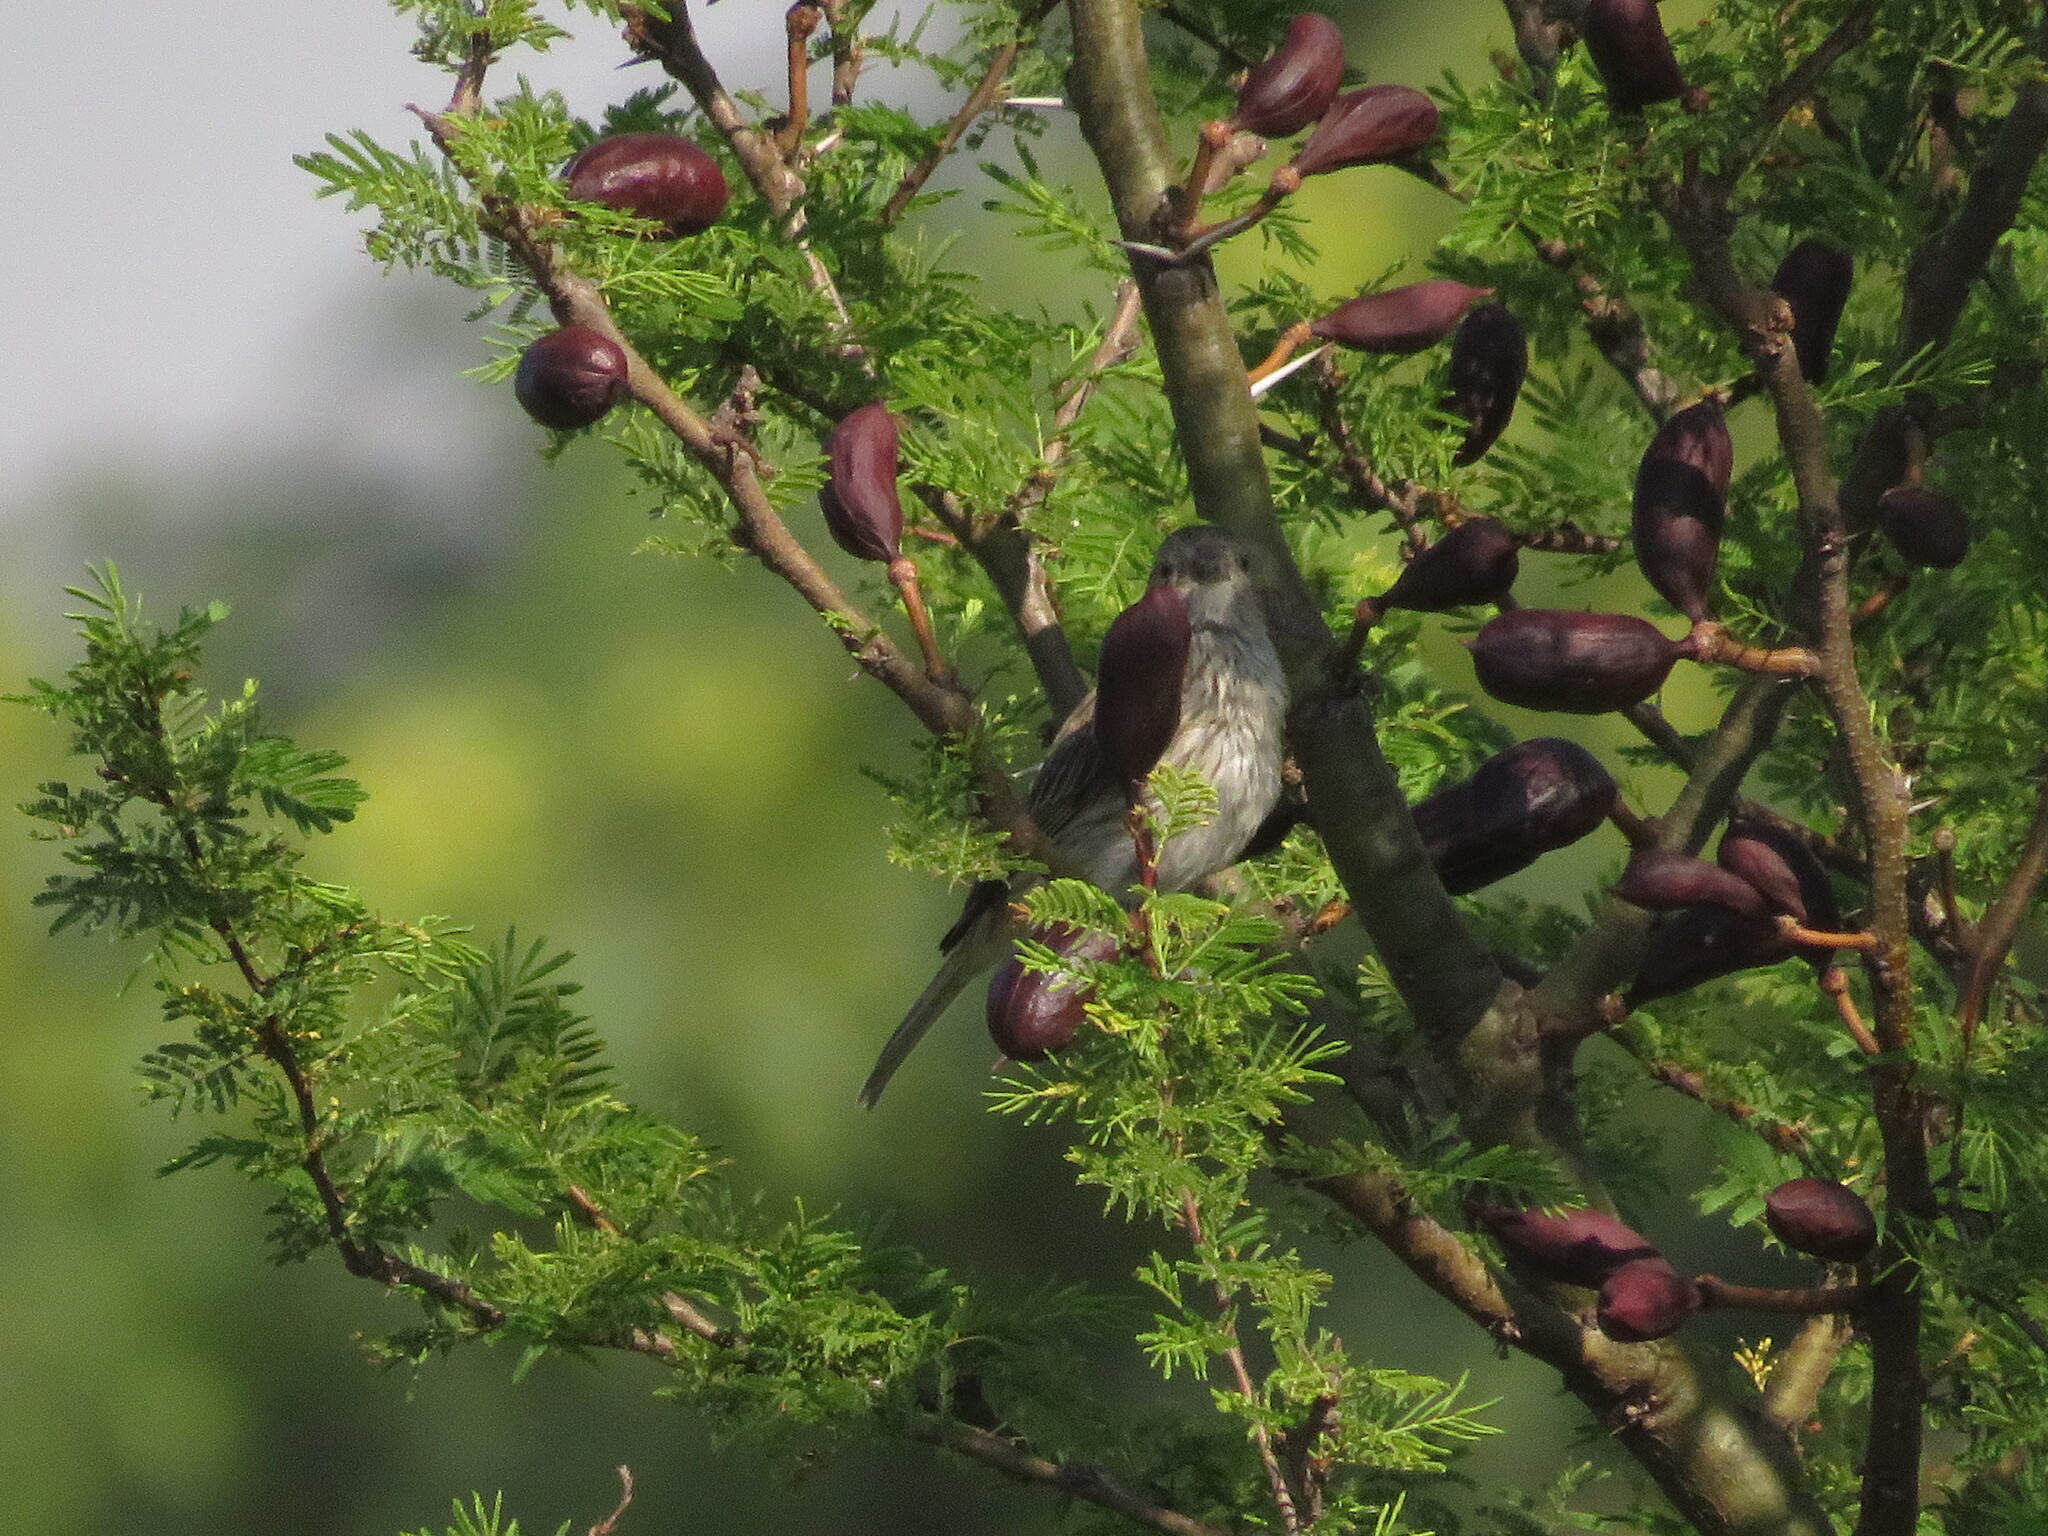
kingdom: Animalia
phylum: Chordata
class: Aves
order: Passeriformes
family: Thraupidae
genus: Sicalis
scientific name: Sicalis flaveola
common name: Saffron finch
